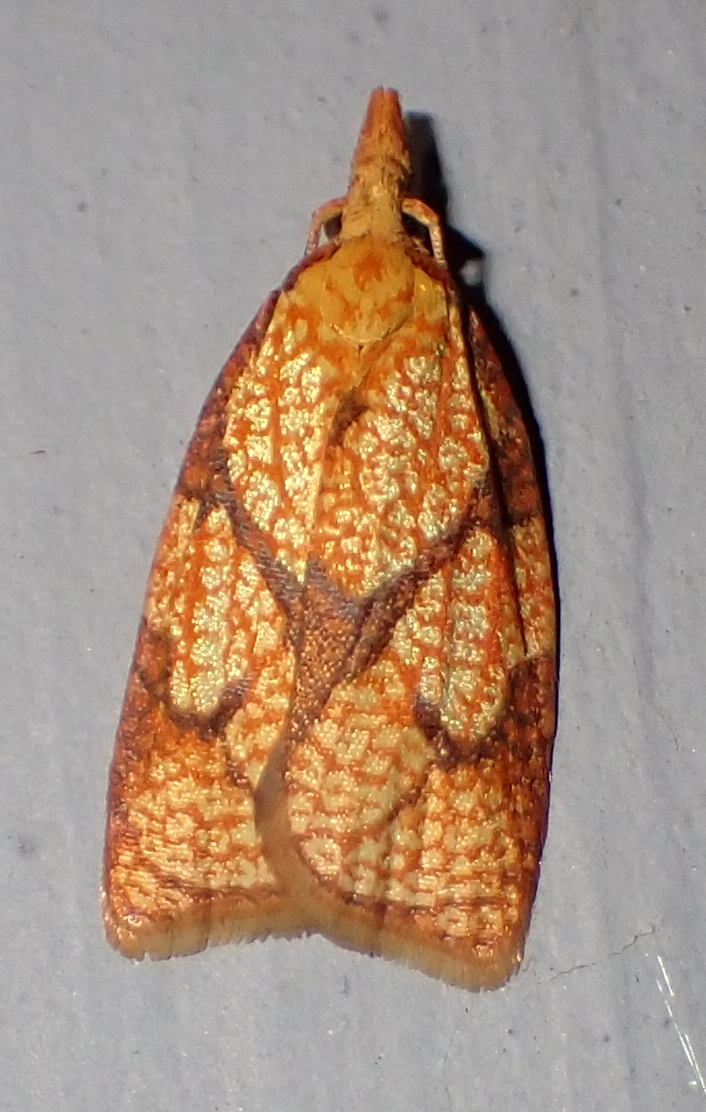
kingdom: Animalia
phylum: Arthropoda
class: Insecta
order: Lepidoptera
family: Tortricidae
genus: Cenopis
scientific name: Cenopis reticulatana
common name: Reticulated fruitworm moth
